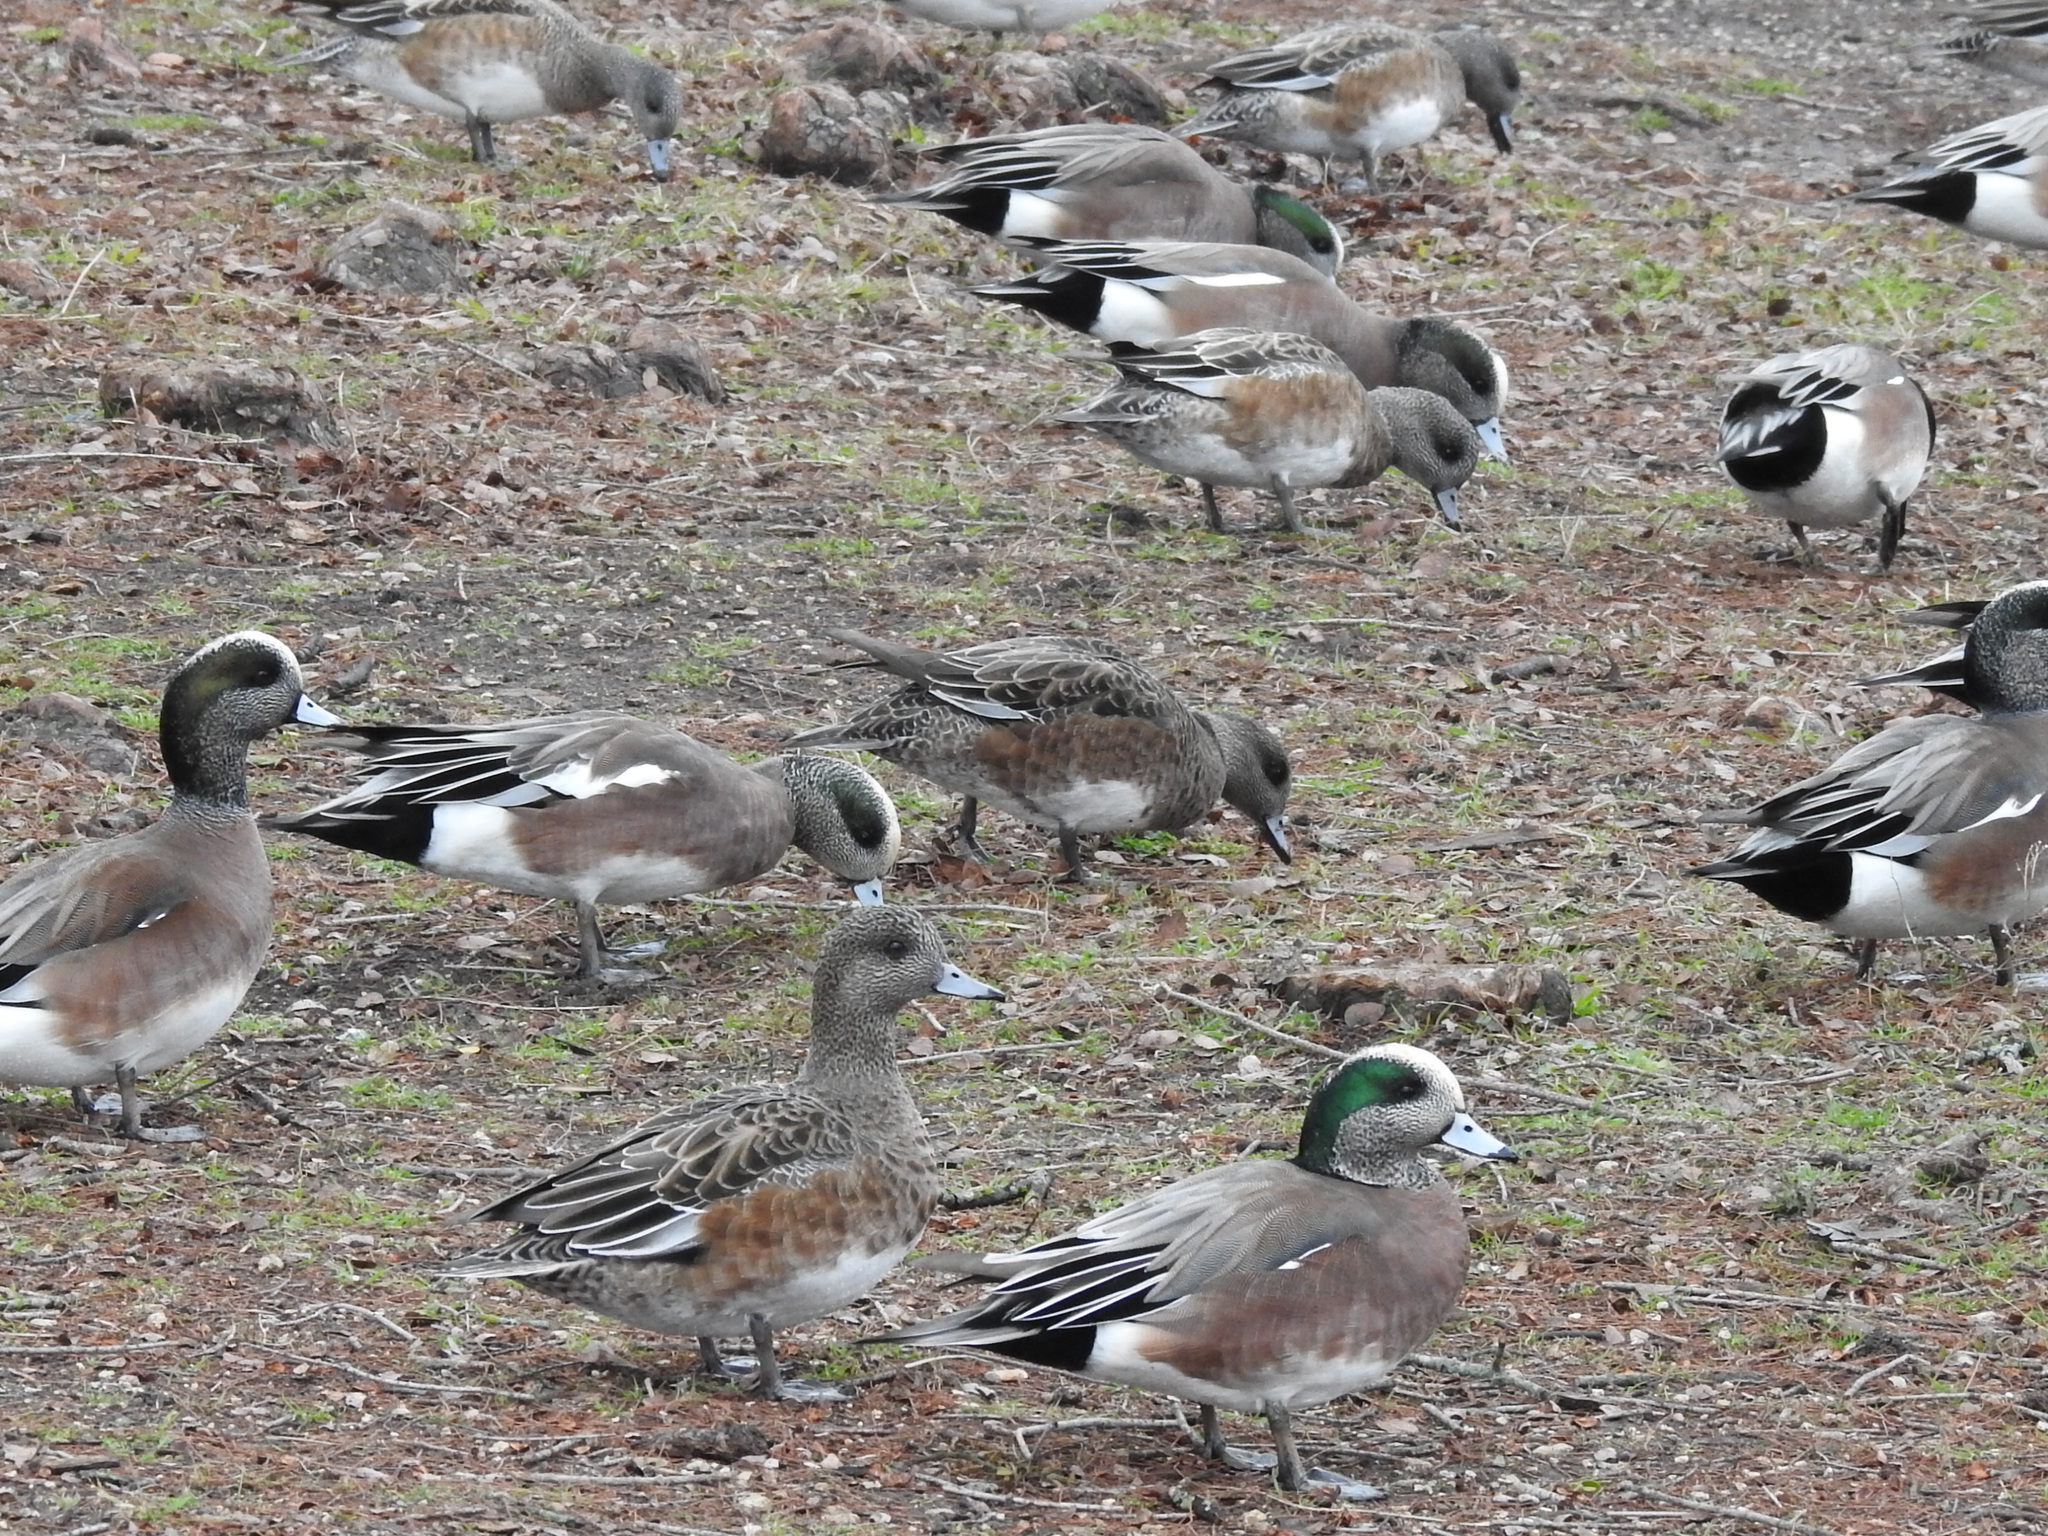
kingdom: Animalia
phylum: Chordata
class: Aves
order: Anseriformes
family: Anatidae
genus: Mareca
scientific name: Mareca americana
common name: American wigeon
